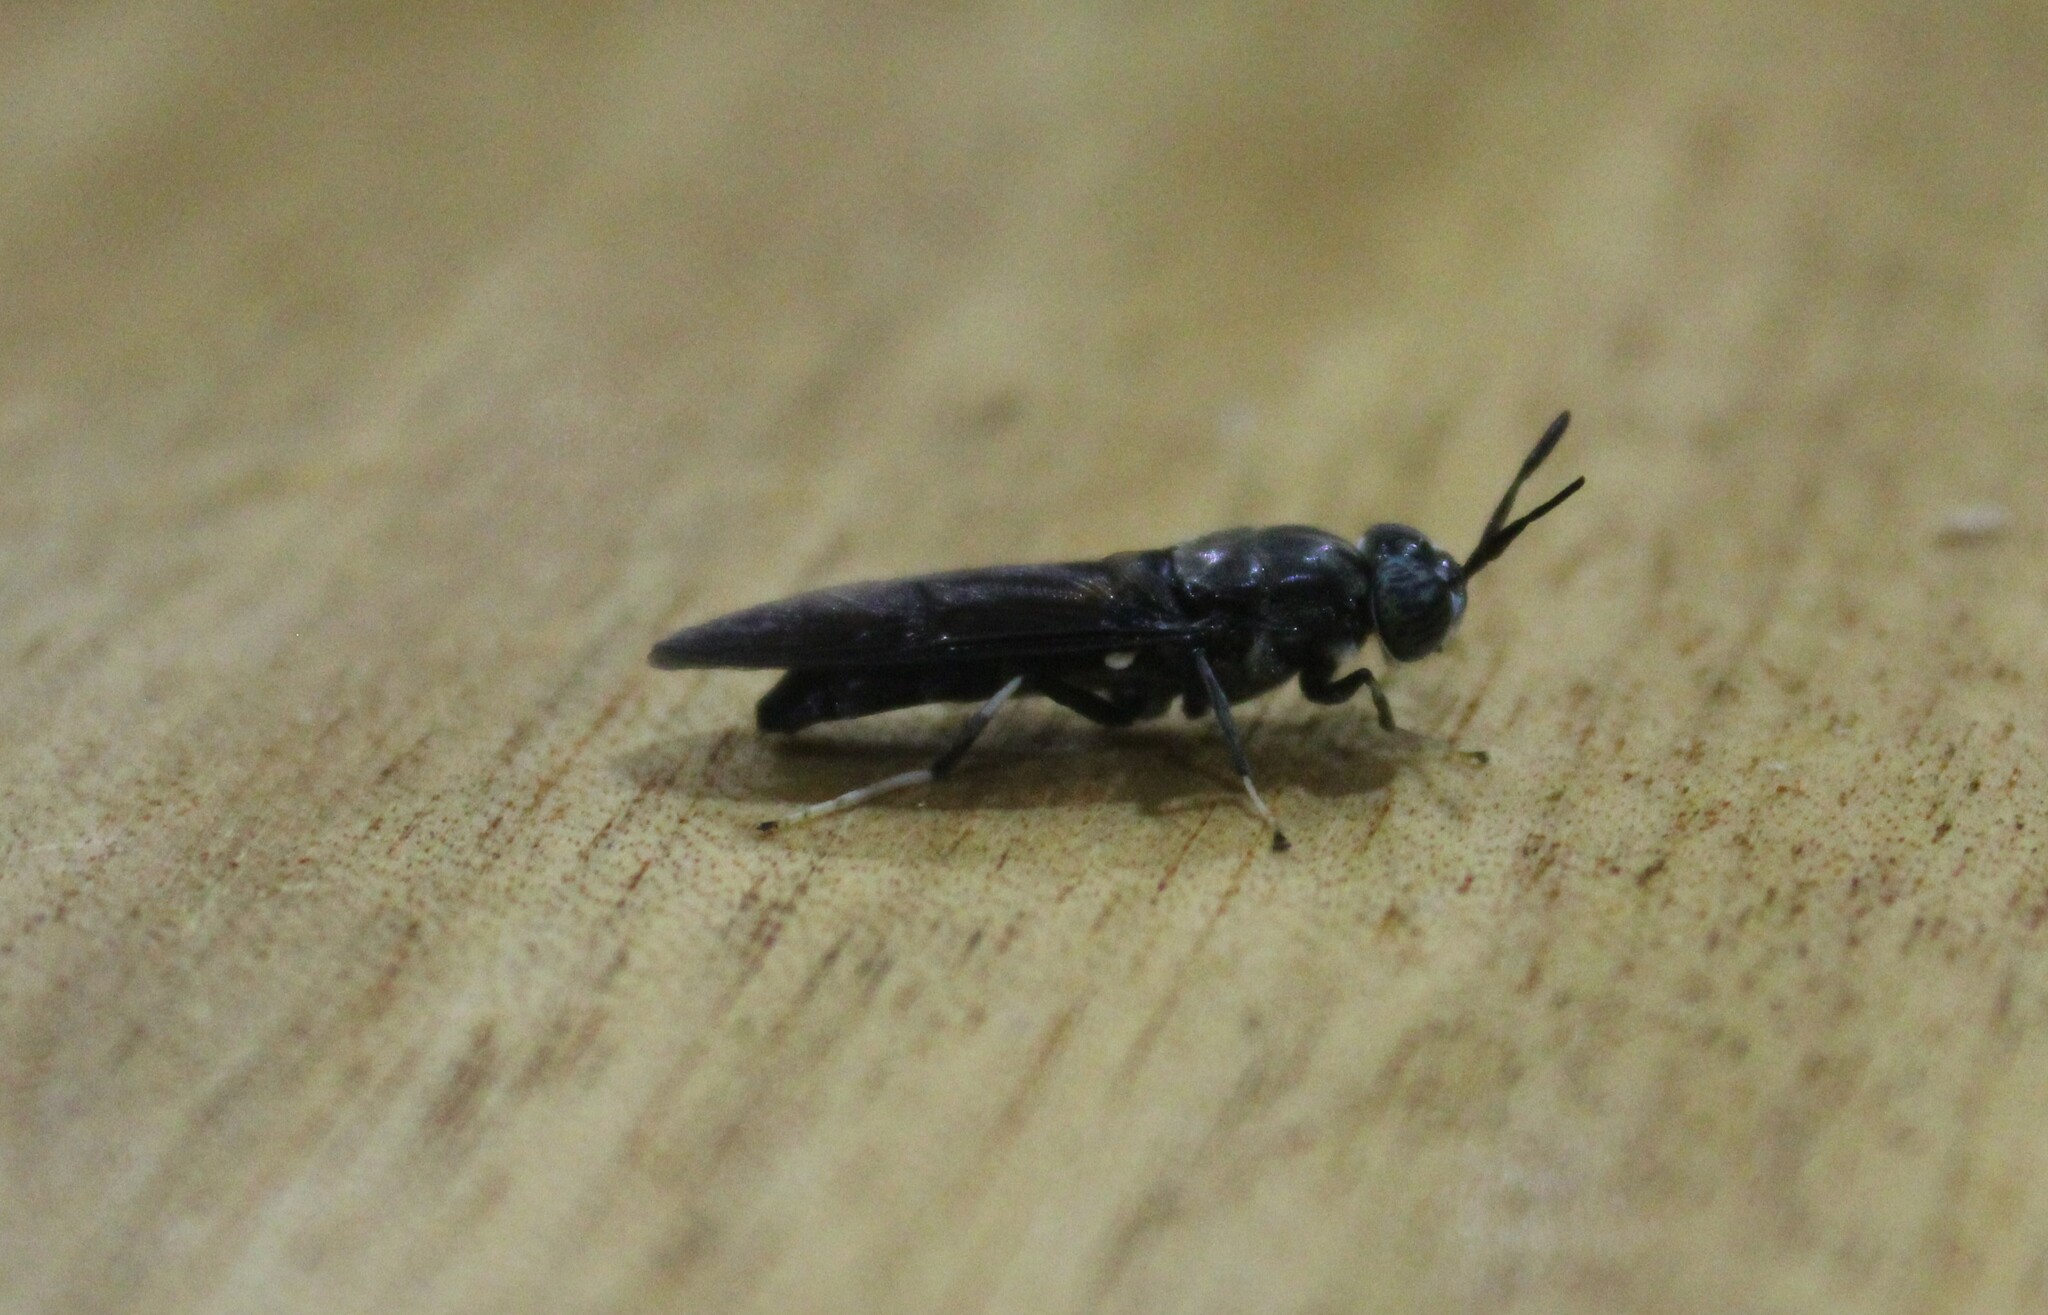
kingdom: Animalia
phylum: Arthropoda
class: Insecta
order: Diptera
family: Stratiomyidae
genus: Hermetia
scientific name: Hermetia illucens
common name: Black soldier fly
